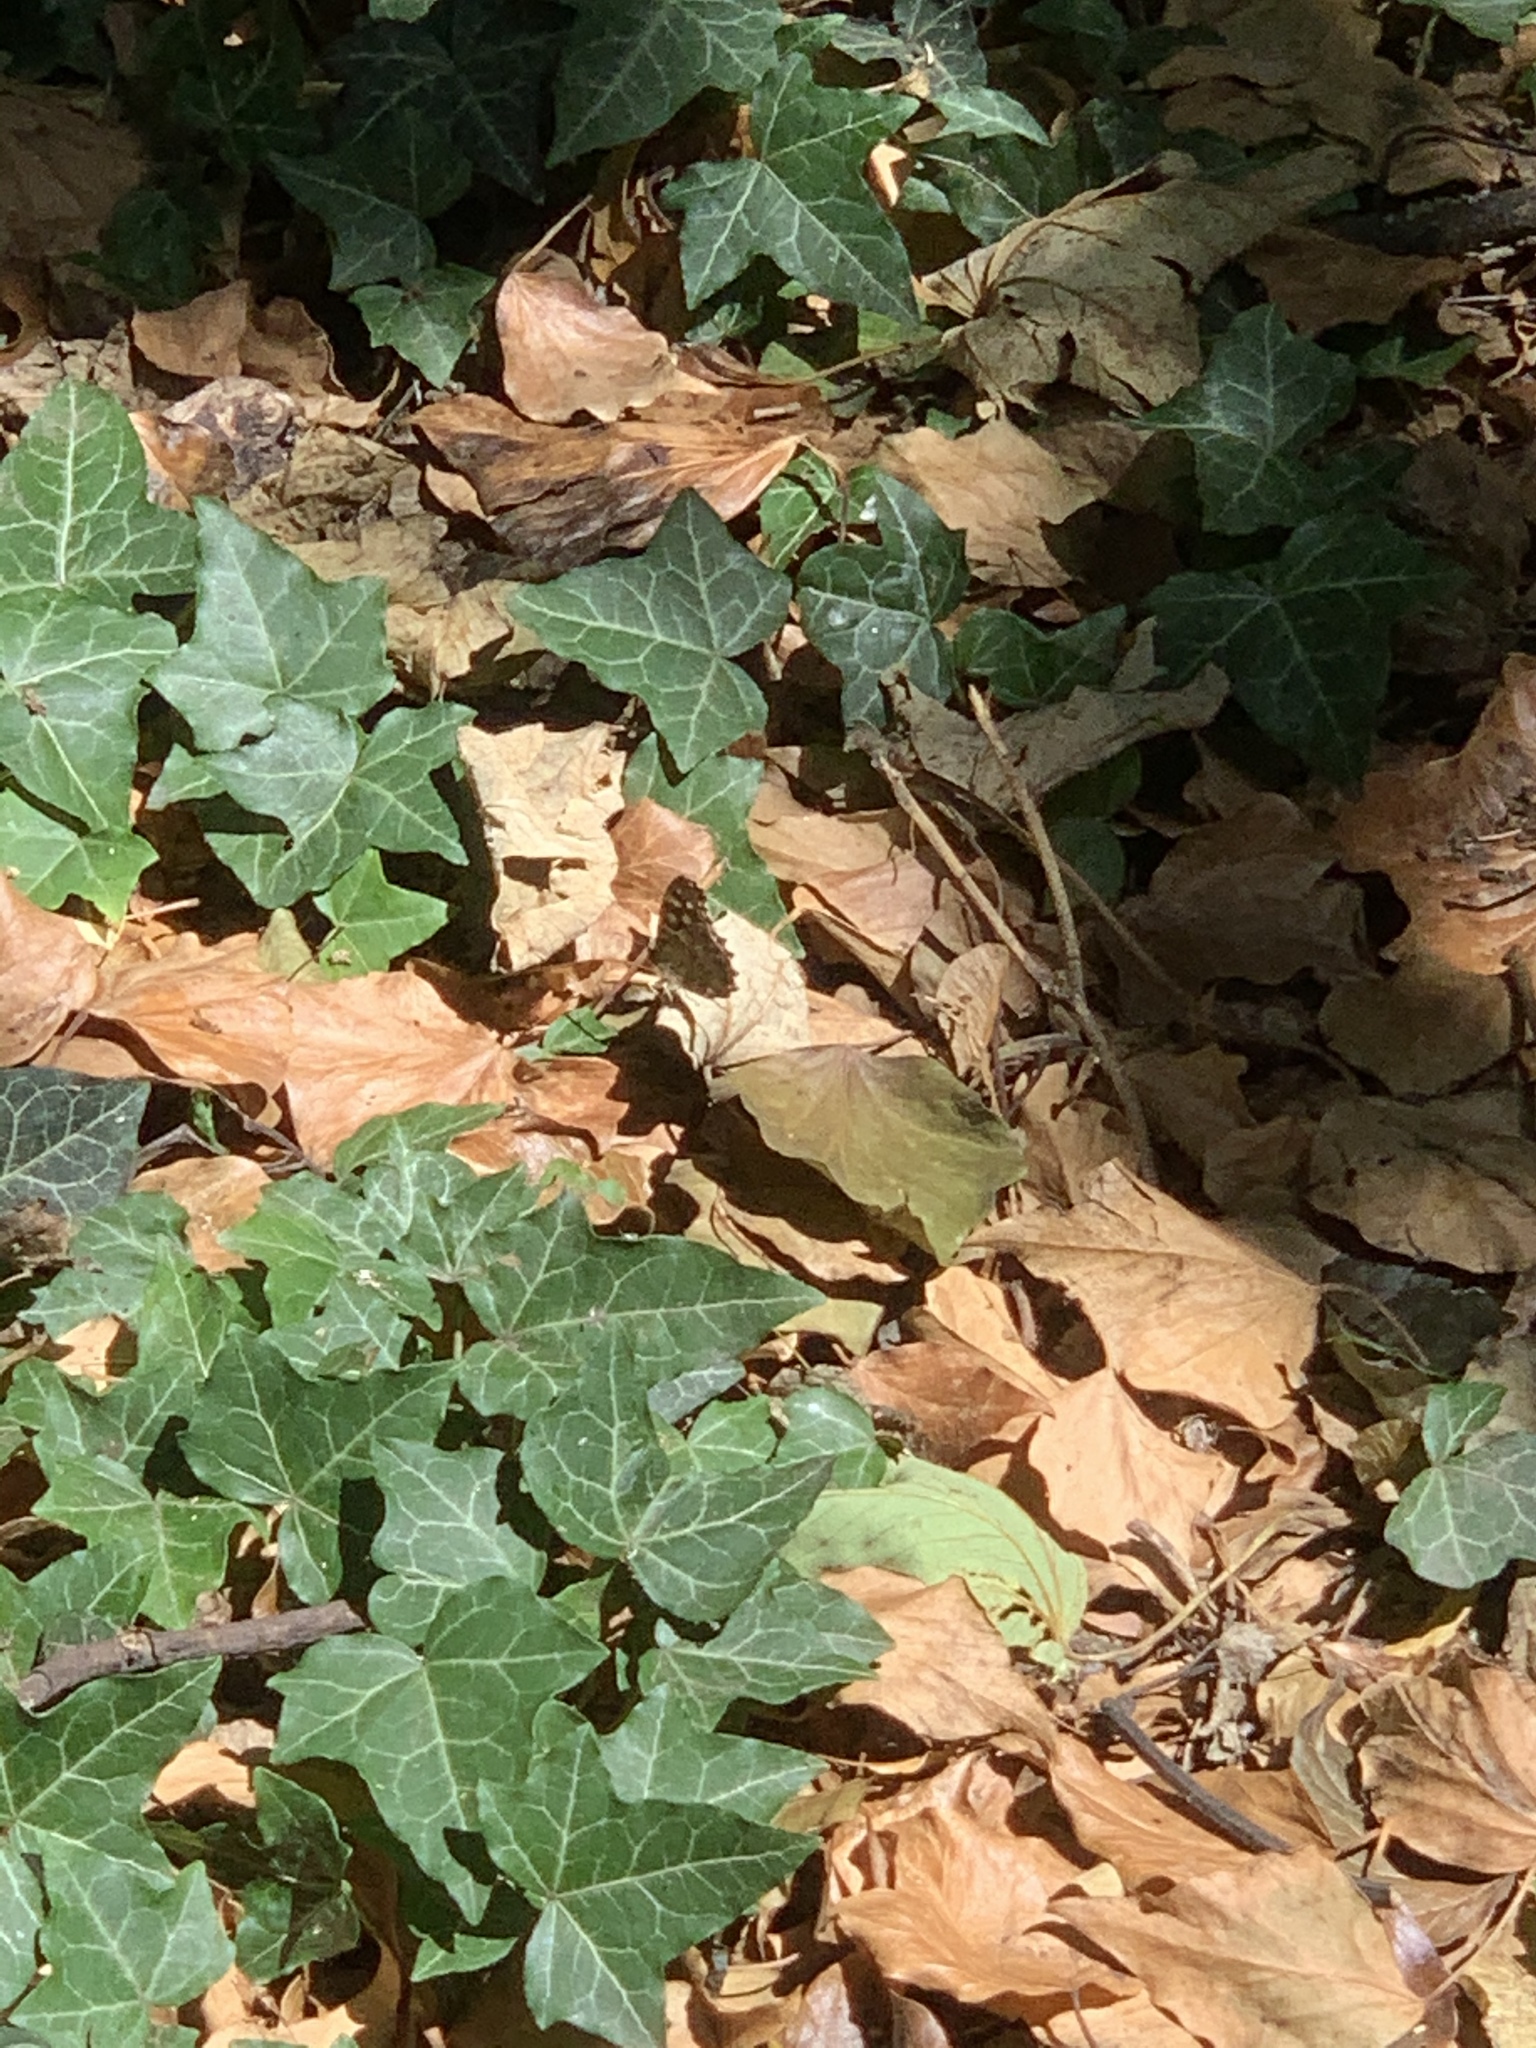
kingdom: Animalia
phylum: Arthropoda
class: Insecta
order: Lepidoptera
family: Nymphalidae
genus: Pararge
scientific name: Pararge aegeria
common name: Speckled wood
